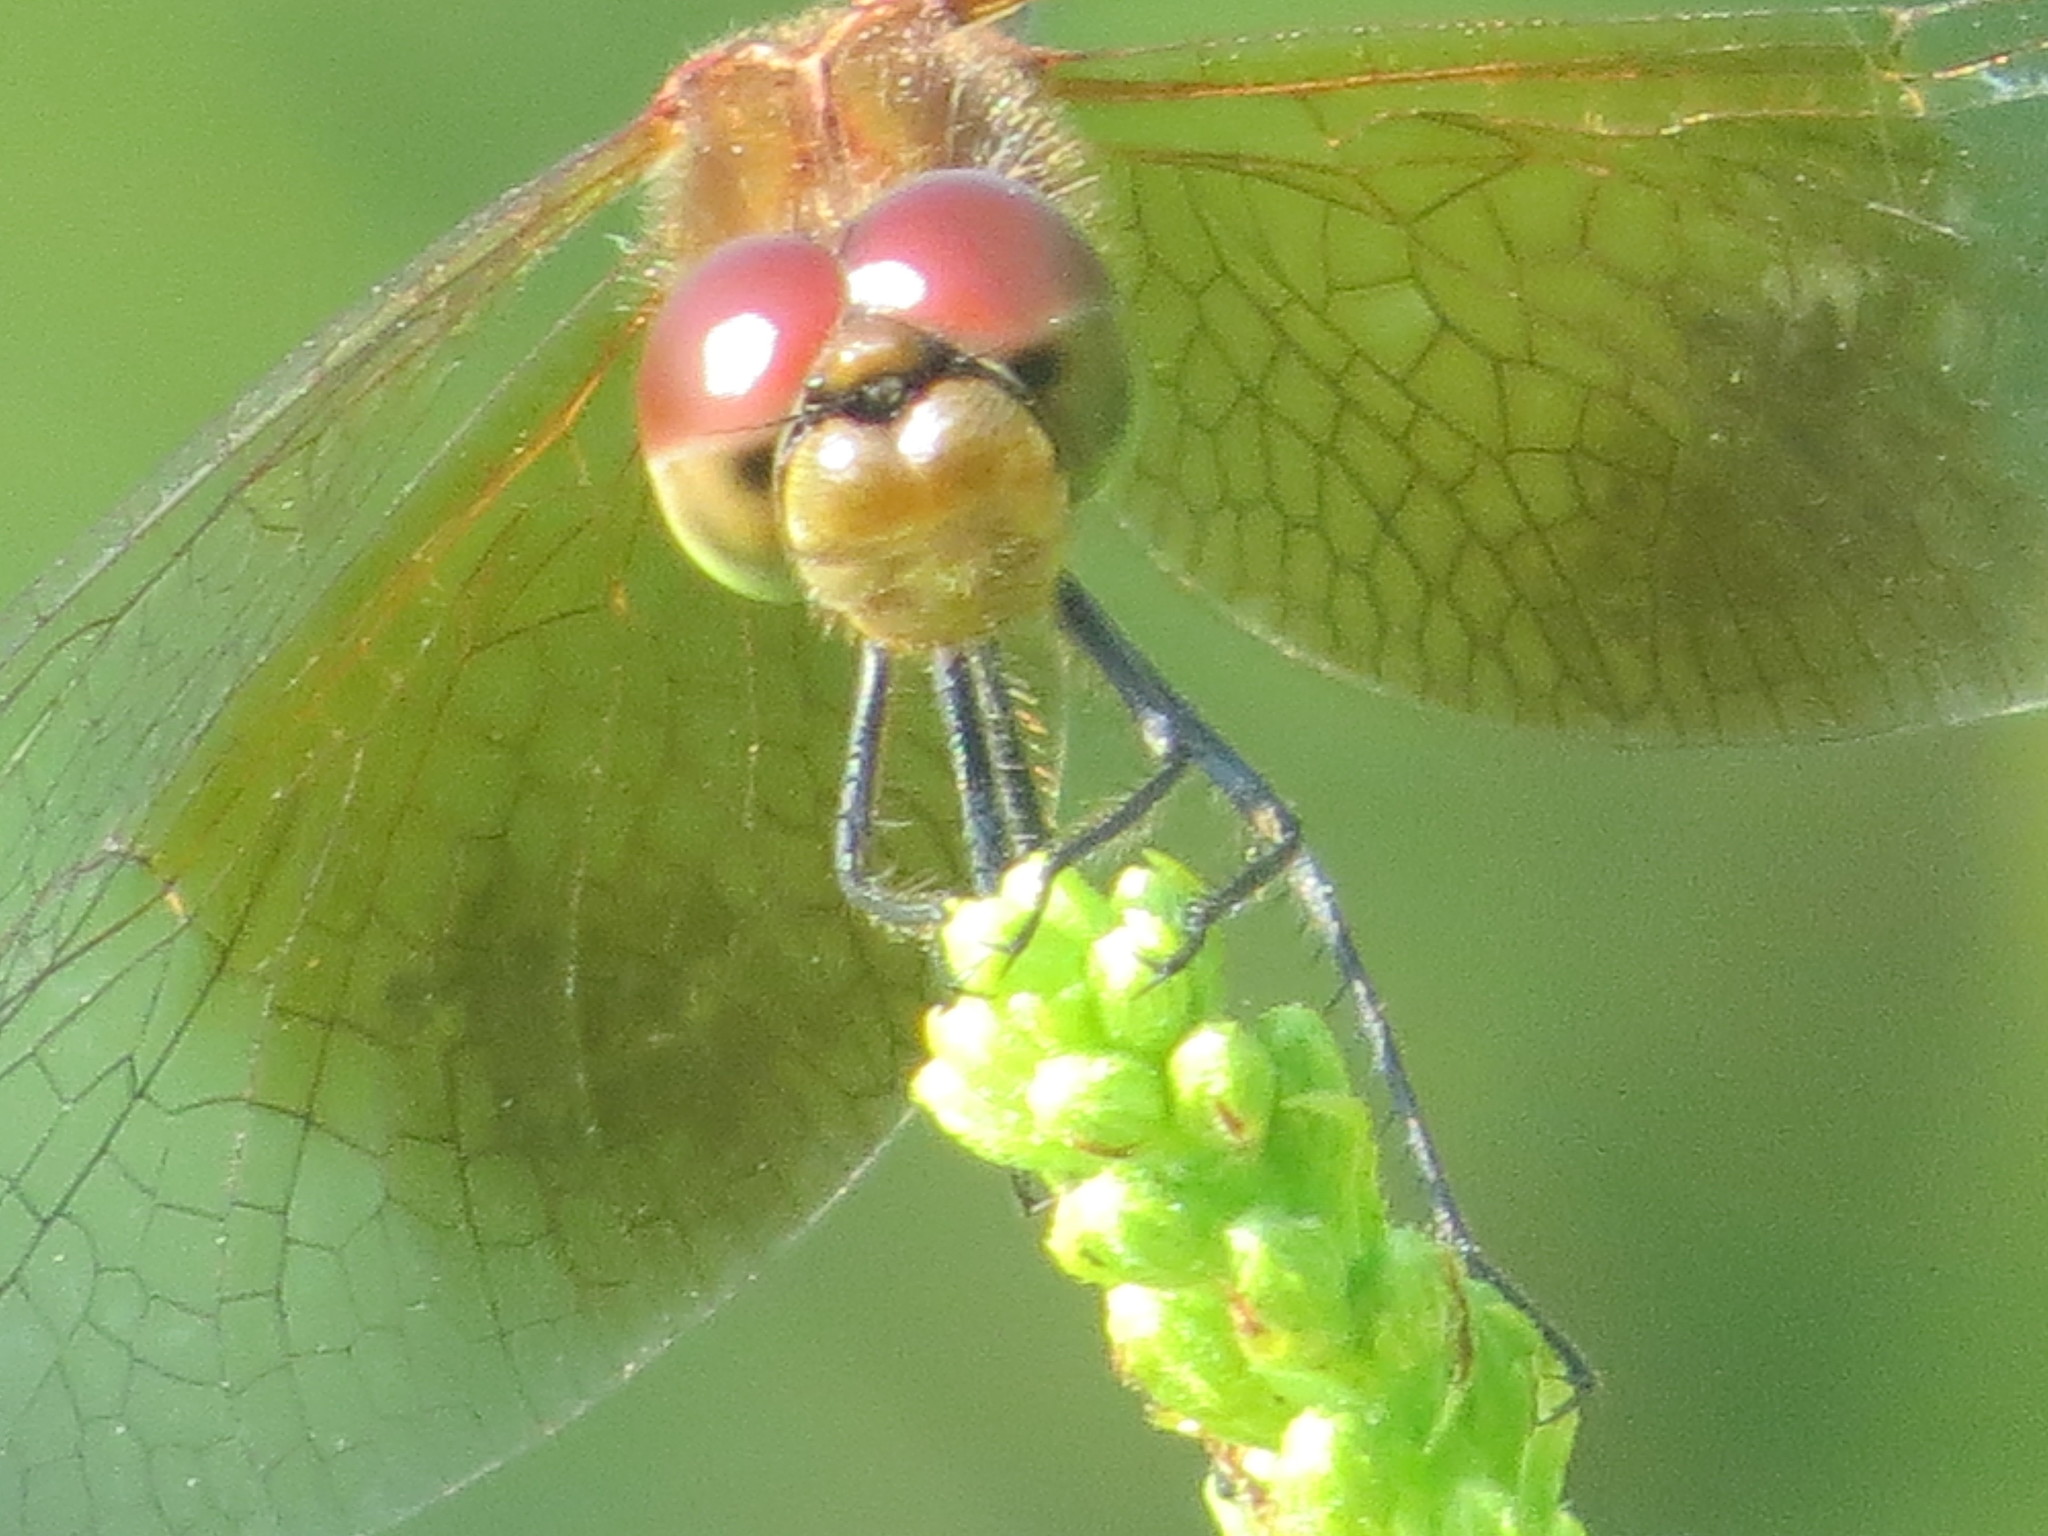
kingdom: Animalia
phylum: Arthropoda
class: Insecta
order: Odonata
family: Libellulidae
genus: Sympetrum
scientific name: Sympetrum semicinctum
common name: Band-winged meadowhawk
